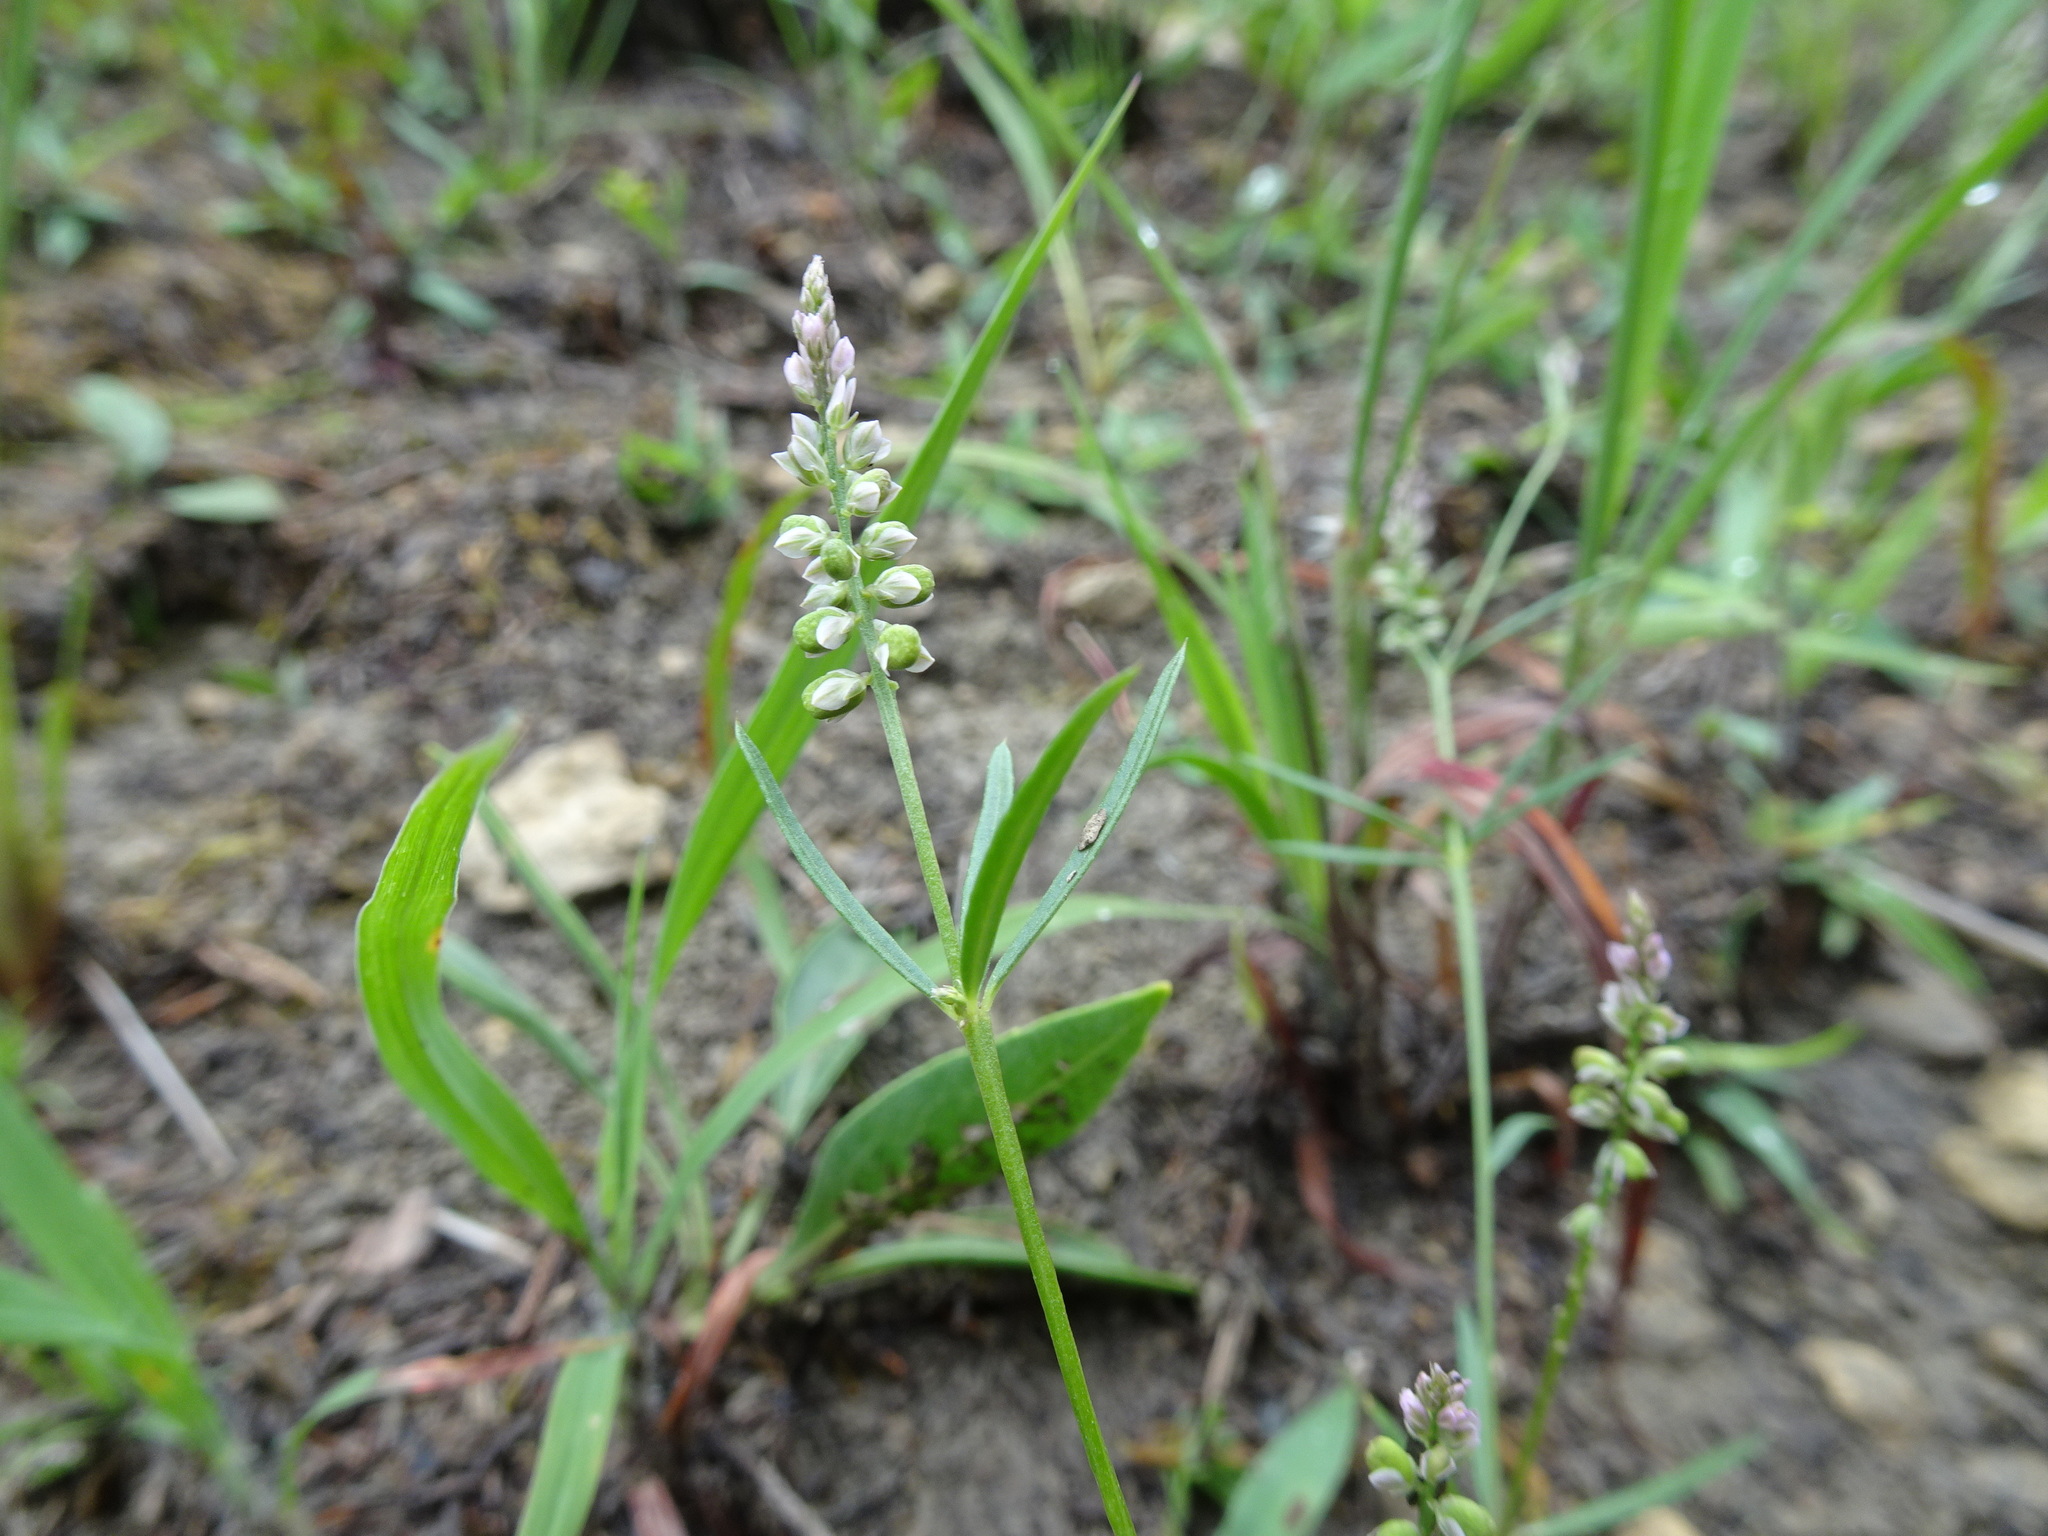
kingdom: Plantae
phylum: Tracheophyta
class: Magnoliopsida
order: Fabales
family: Polygalaceae
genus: Polygala
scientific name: Polygala verticillata
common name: Whorl milkwort
